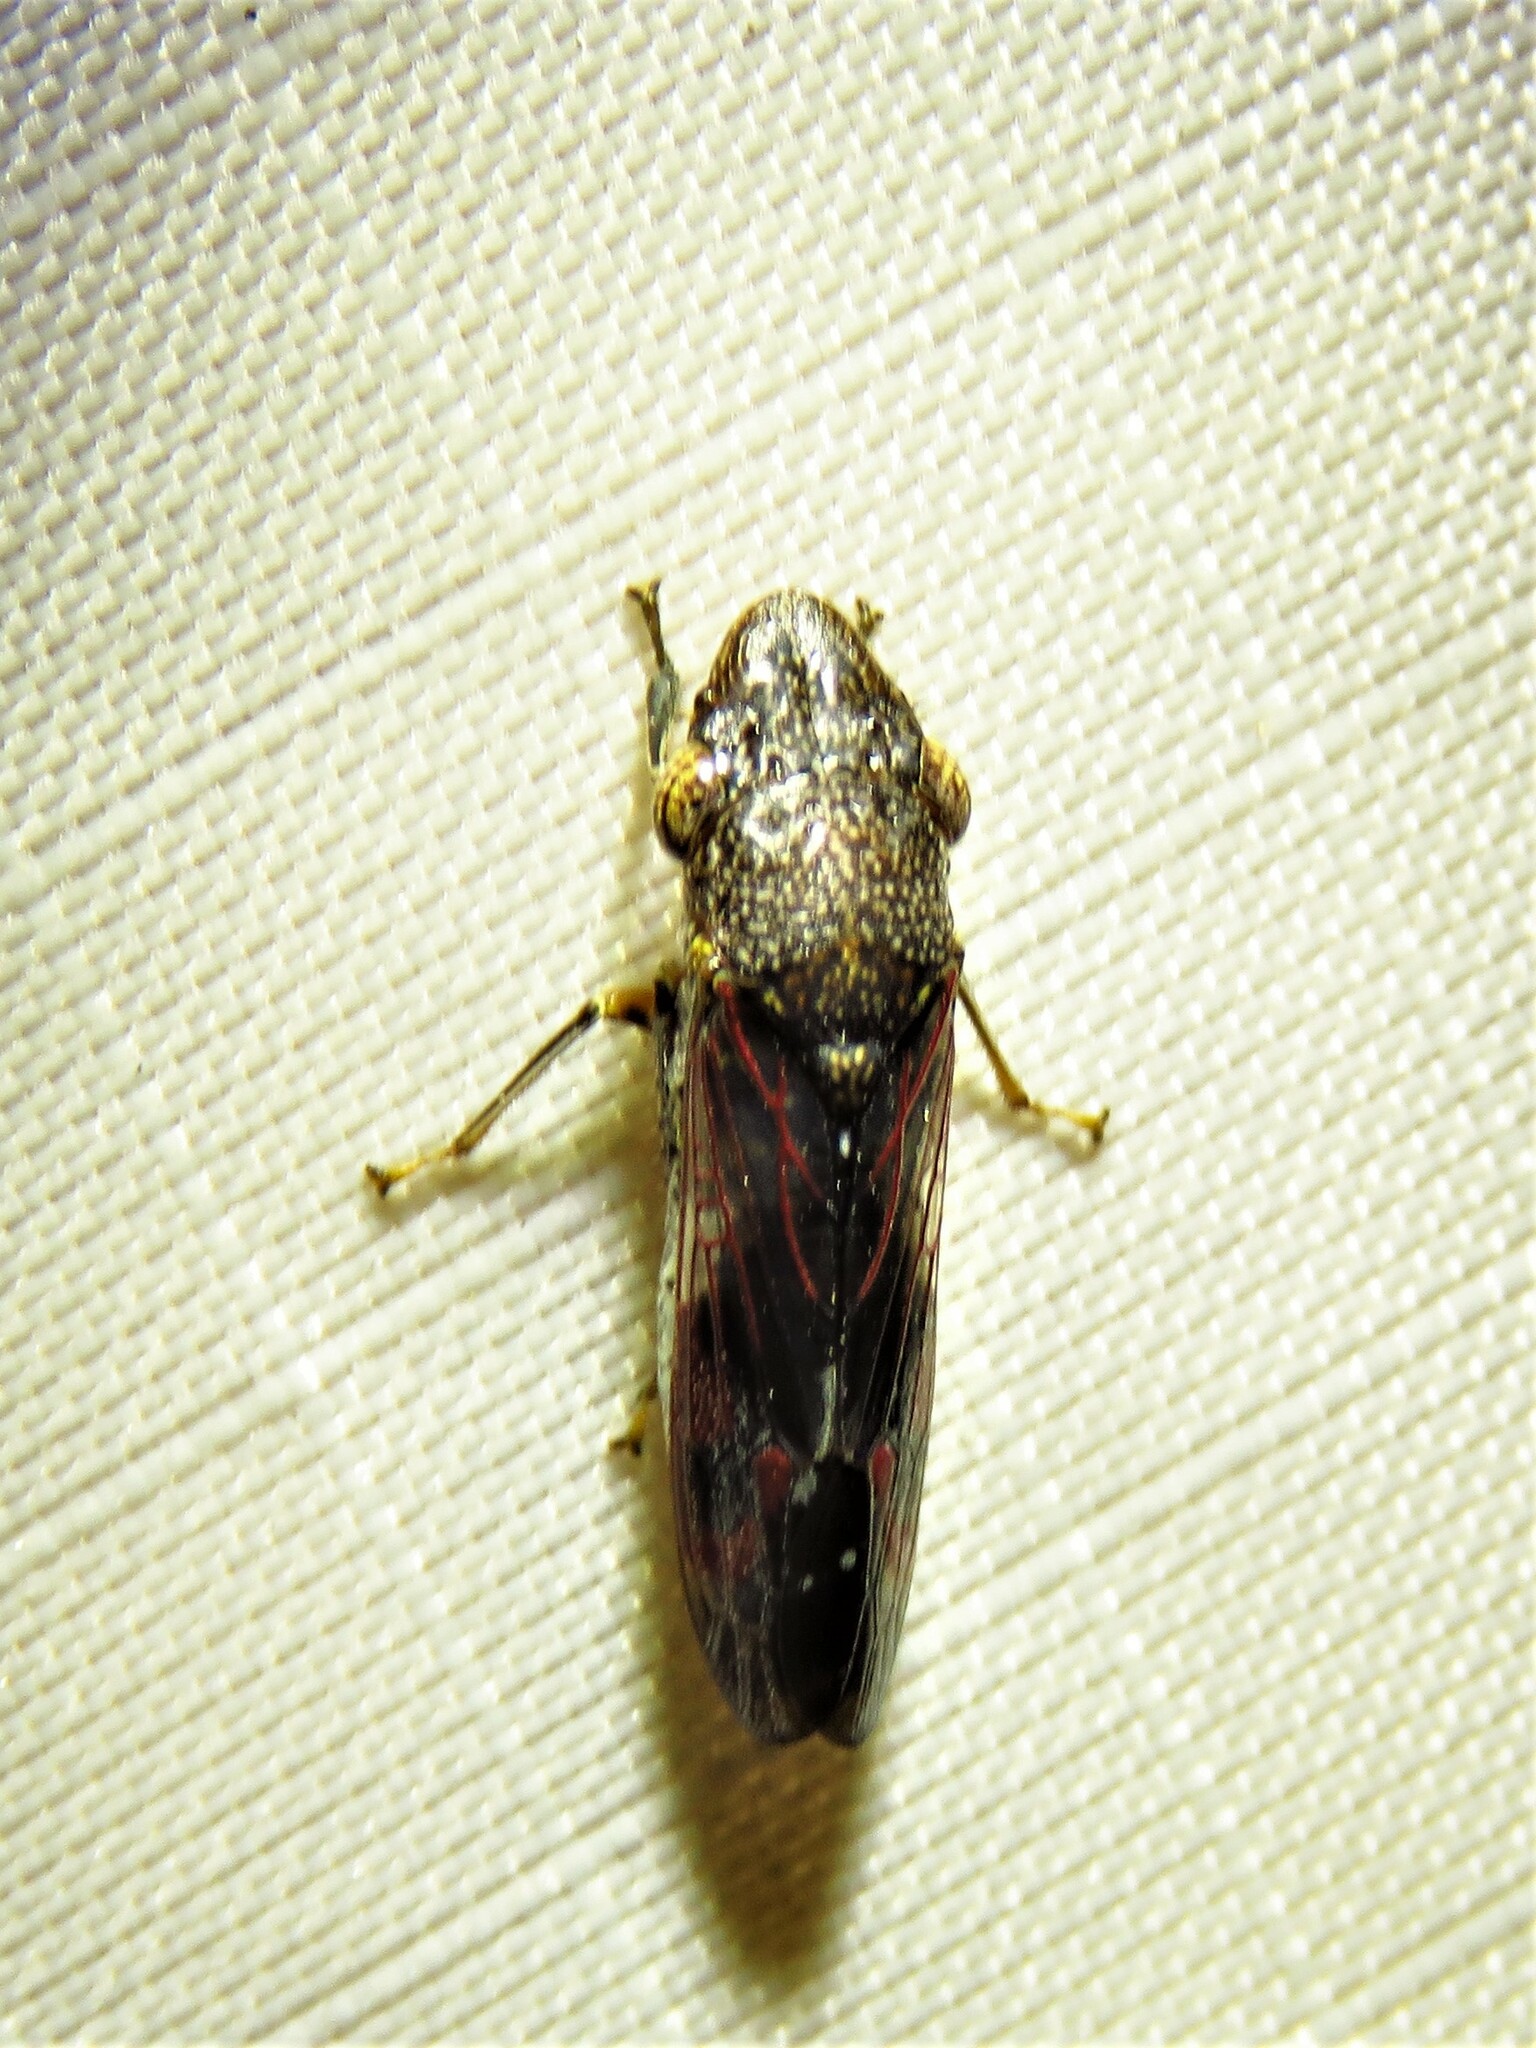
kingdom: Animalia
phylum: Arthropoda
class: Insecta
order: Hemiptera
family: Cicadellidae
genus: Homalodisca
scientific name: Homalodisca vitripennis
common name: Glassy-winged sharpshooter
